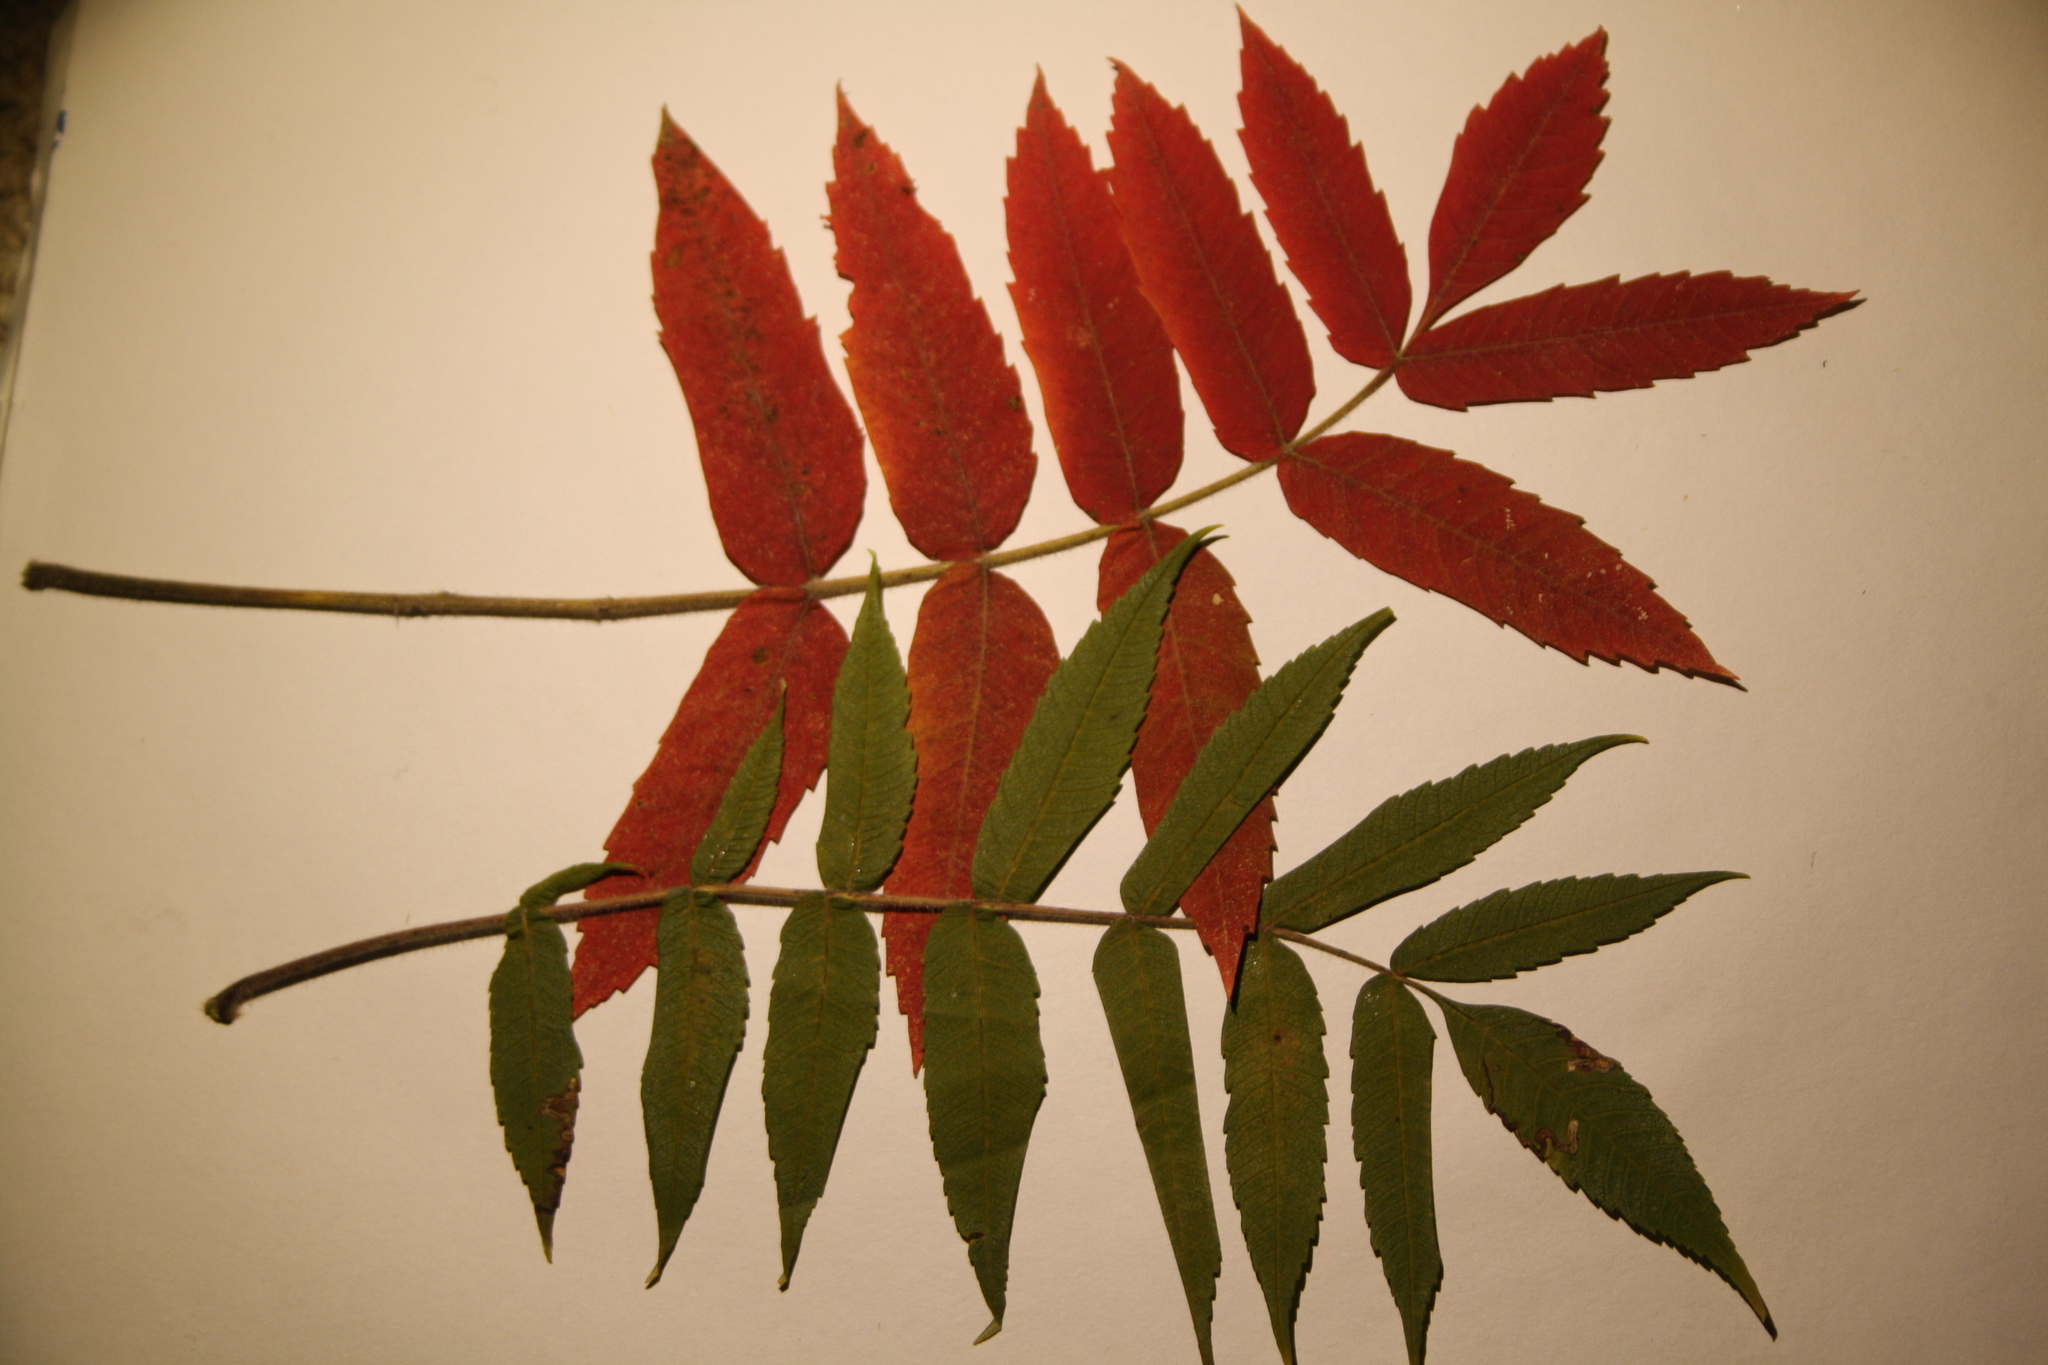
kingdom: Plantae
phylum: Tracheophyta
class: Magnoliopsida
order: Sapindales
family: Anacardiaceae
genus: Rhus
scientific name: Rhus typhina
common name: Staghorn sumac
